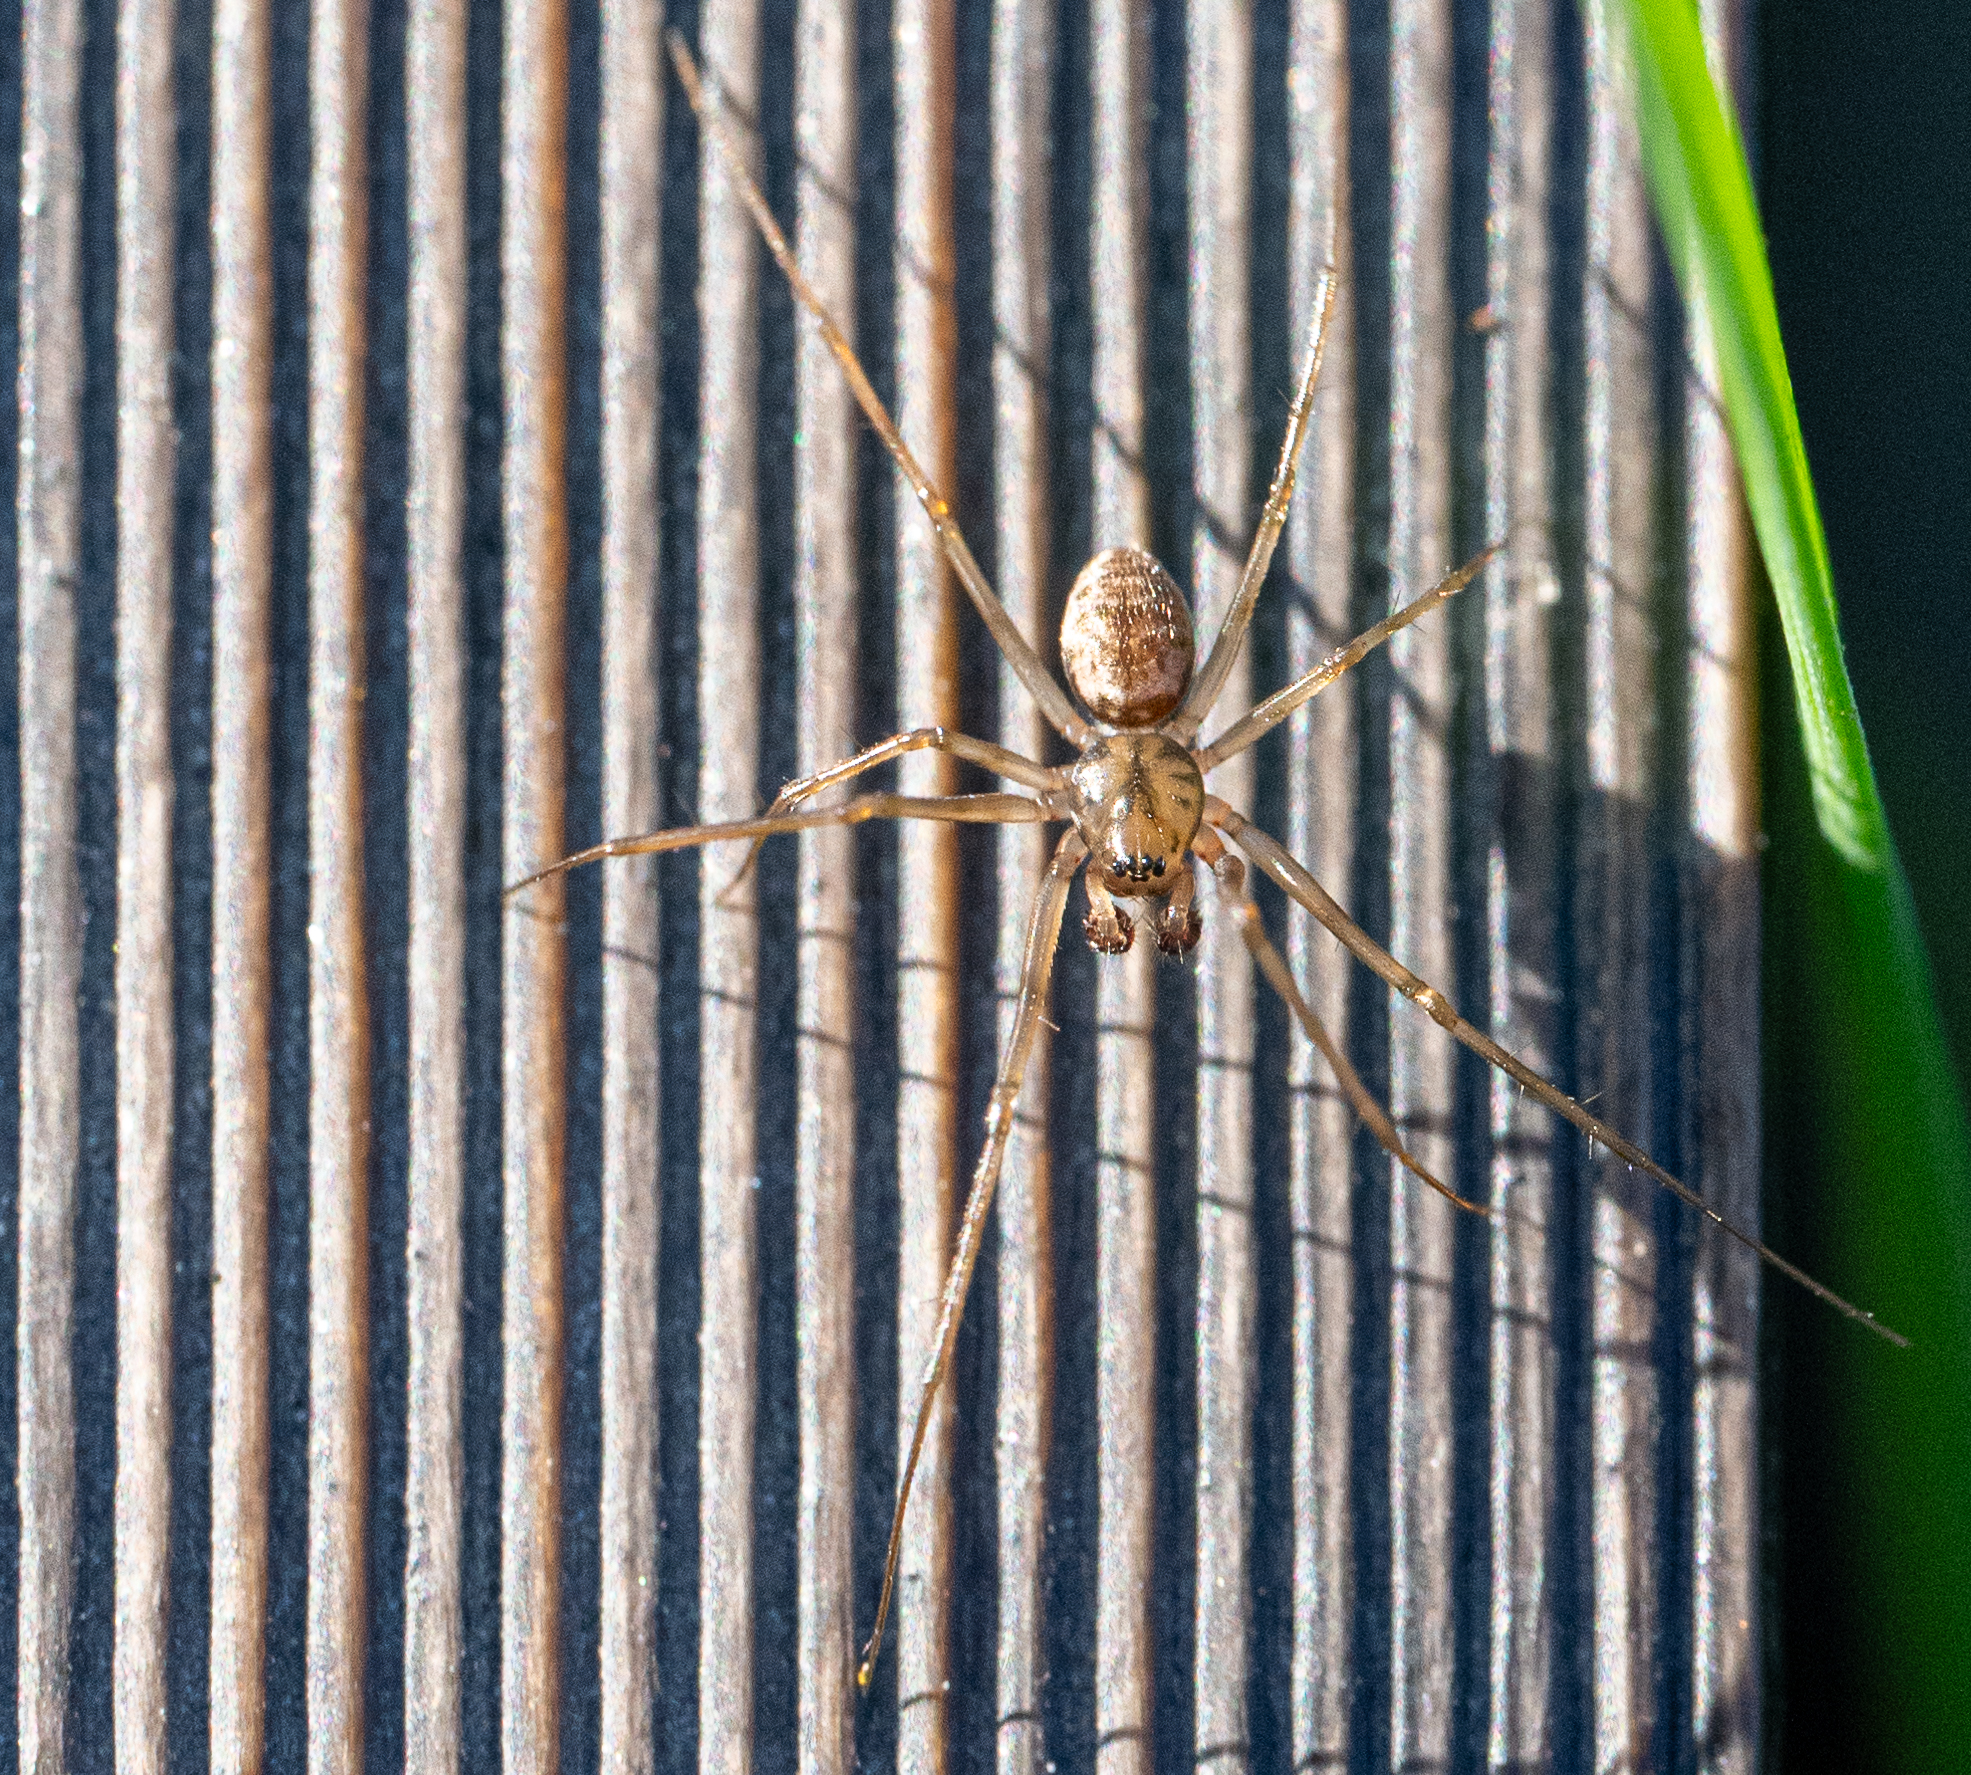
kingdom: Animalia
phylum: Arthropoda
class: Arachnida
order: Araneae
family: Linyphiidae
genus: Drapetisca
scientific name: Drapetisca socialis
